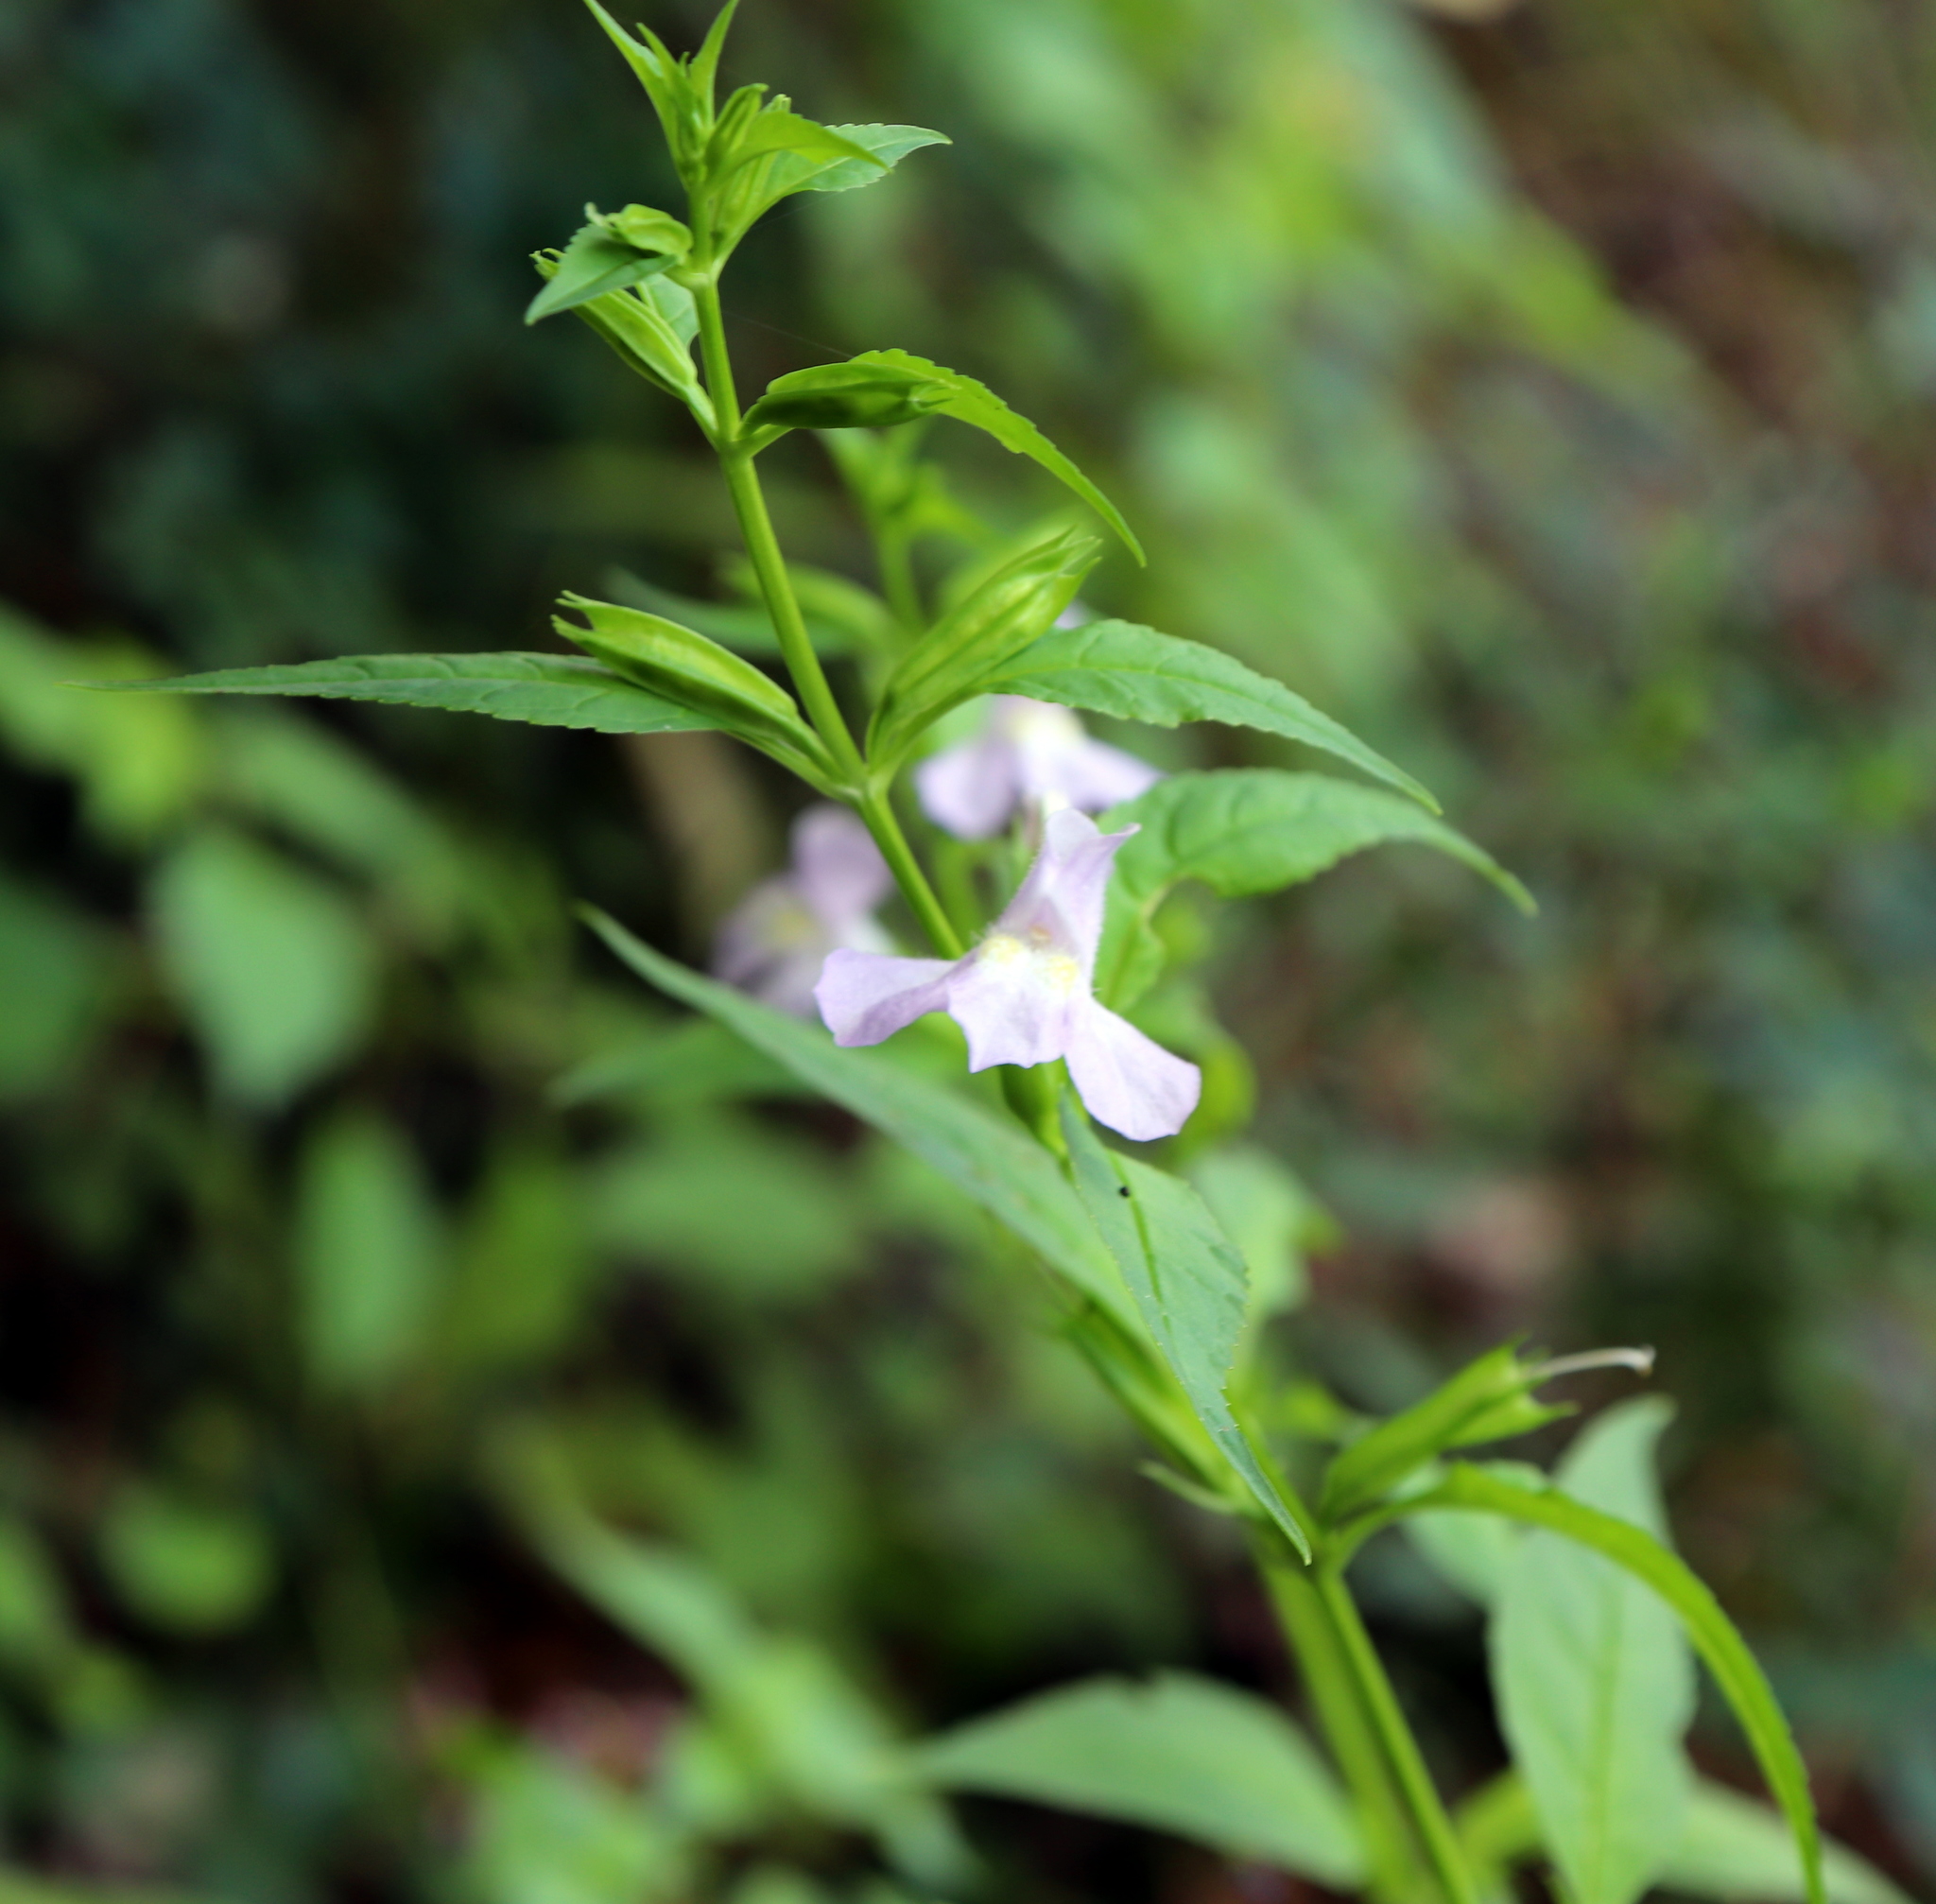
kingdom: Plantae
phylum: Tracheophyta
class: Magnoliopsida
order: Lamiales
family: Phrymaceae
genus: Mimulus
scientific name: Mimulus alatus
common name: Sharp-wing monkey-flower
